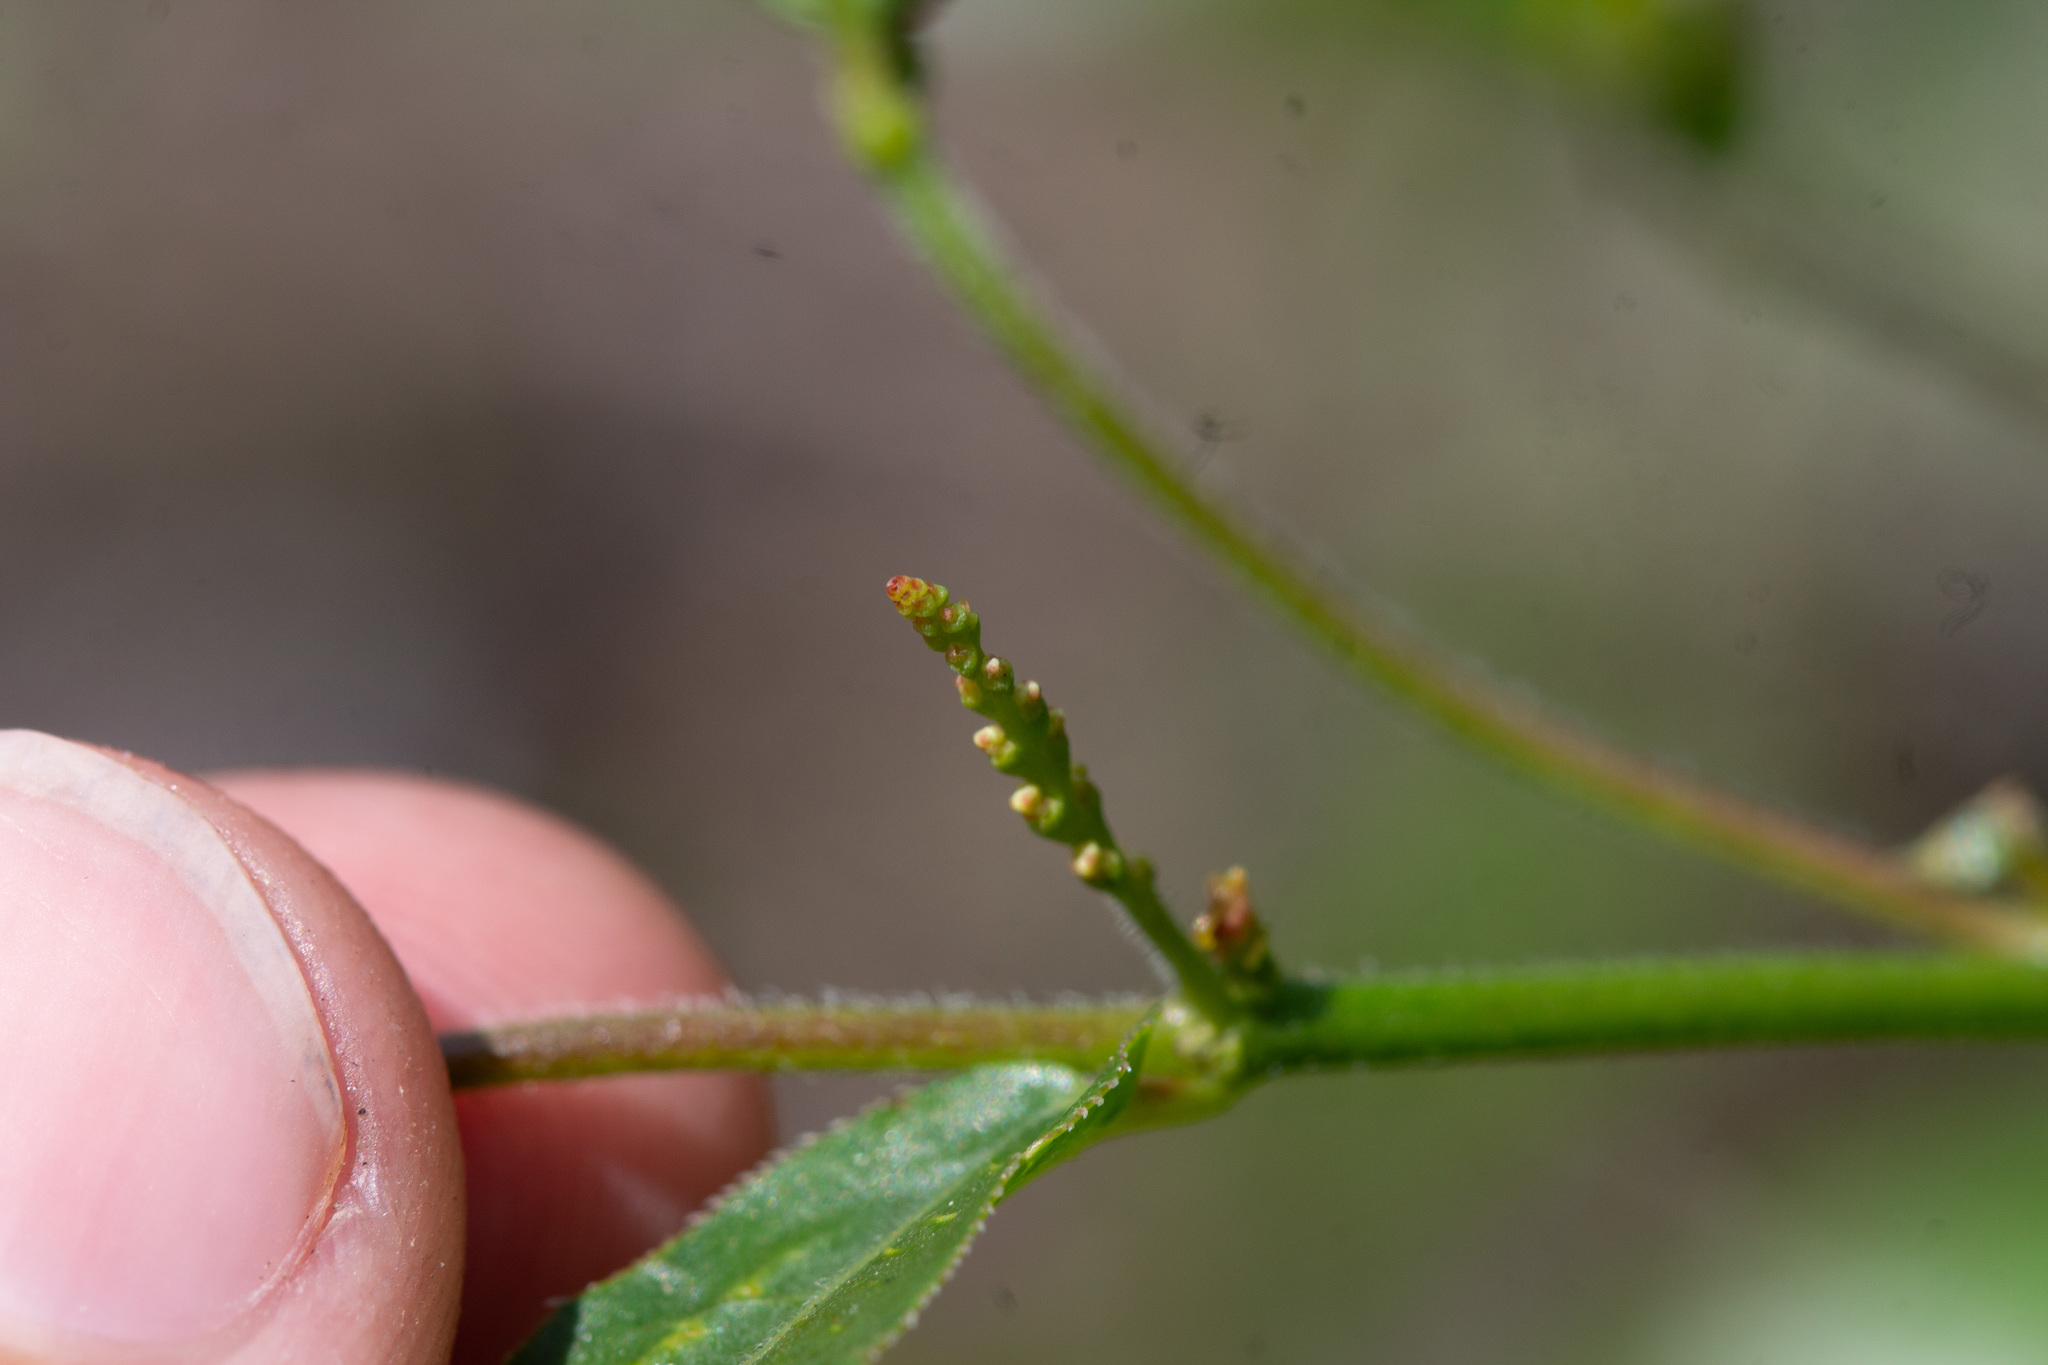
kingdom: Plantae
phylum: Tracheophyta
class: Magnoliopsida
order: Malpighiales
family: Euphorbiaceae
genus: Microstachys
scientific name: Microstachys serrulata
